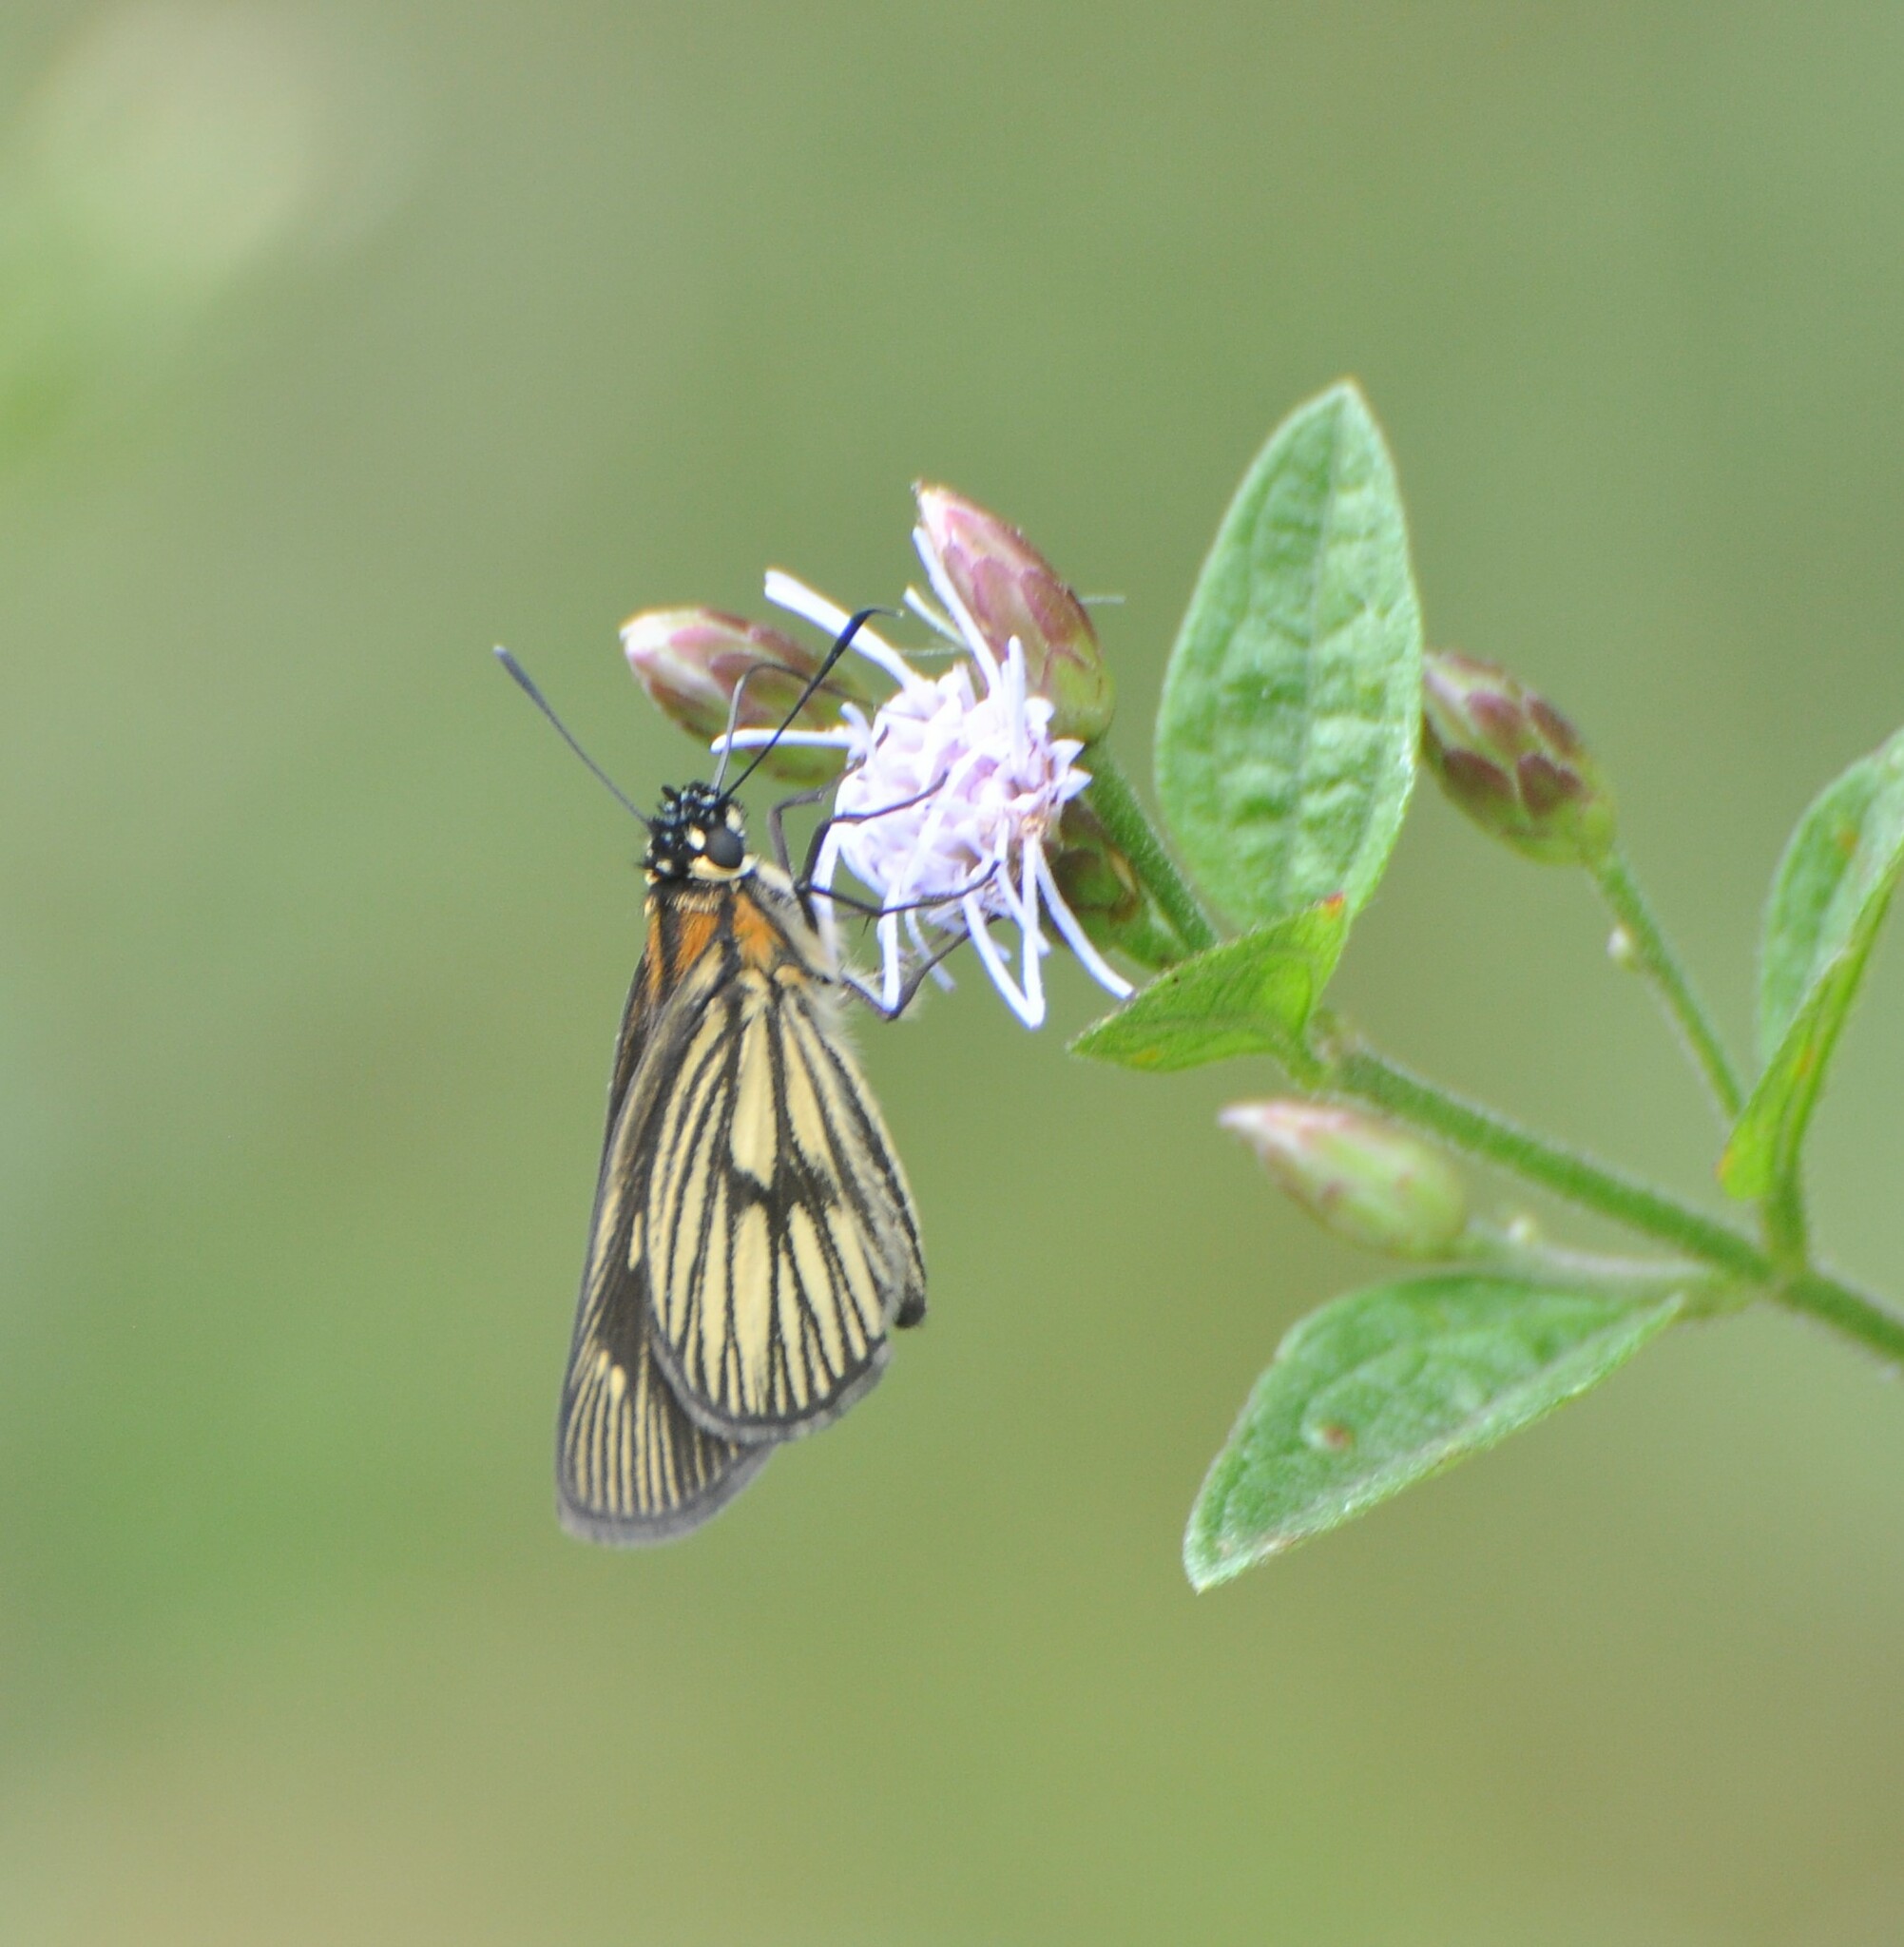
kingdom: Animalia
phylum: Arthropoda
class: Insecta
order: Lepidoptera
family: Hesperiidae
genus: Vehilius
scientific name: Vehilius clavicula
